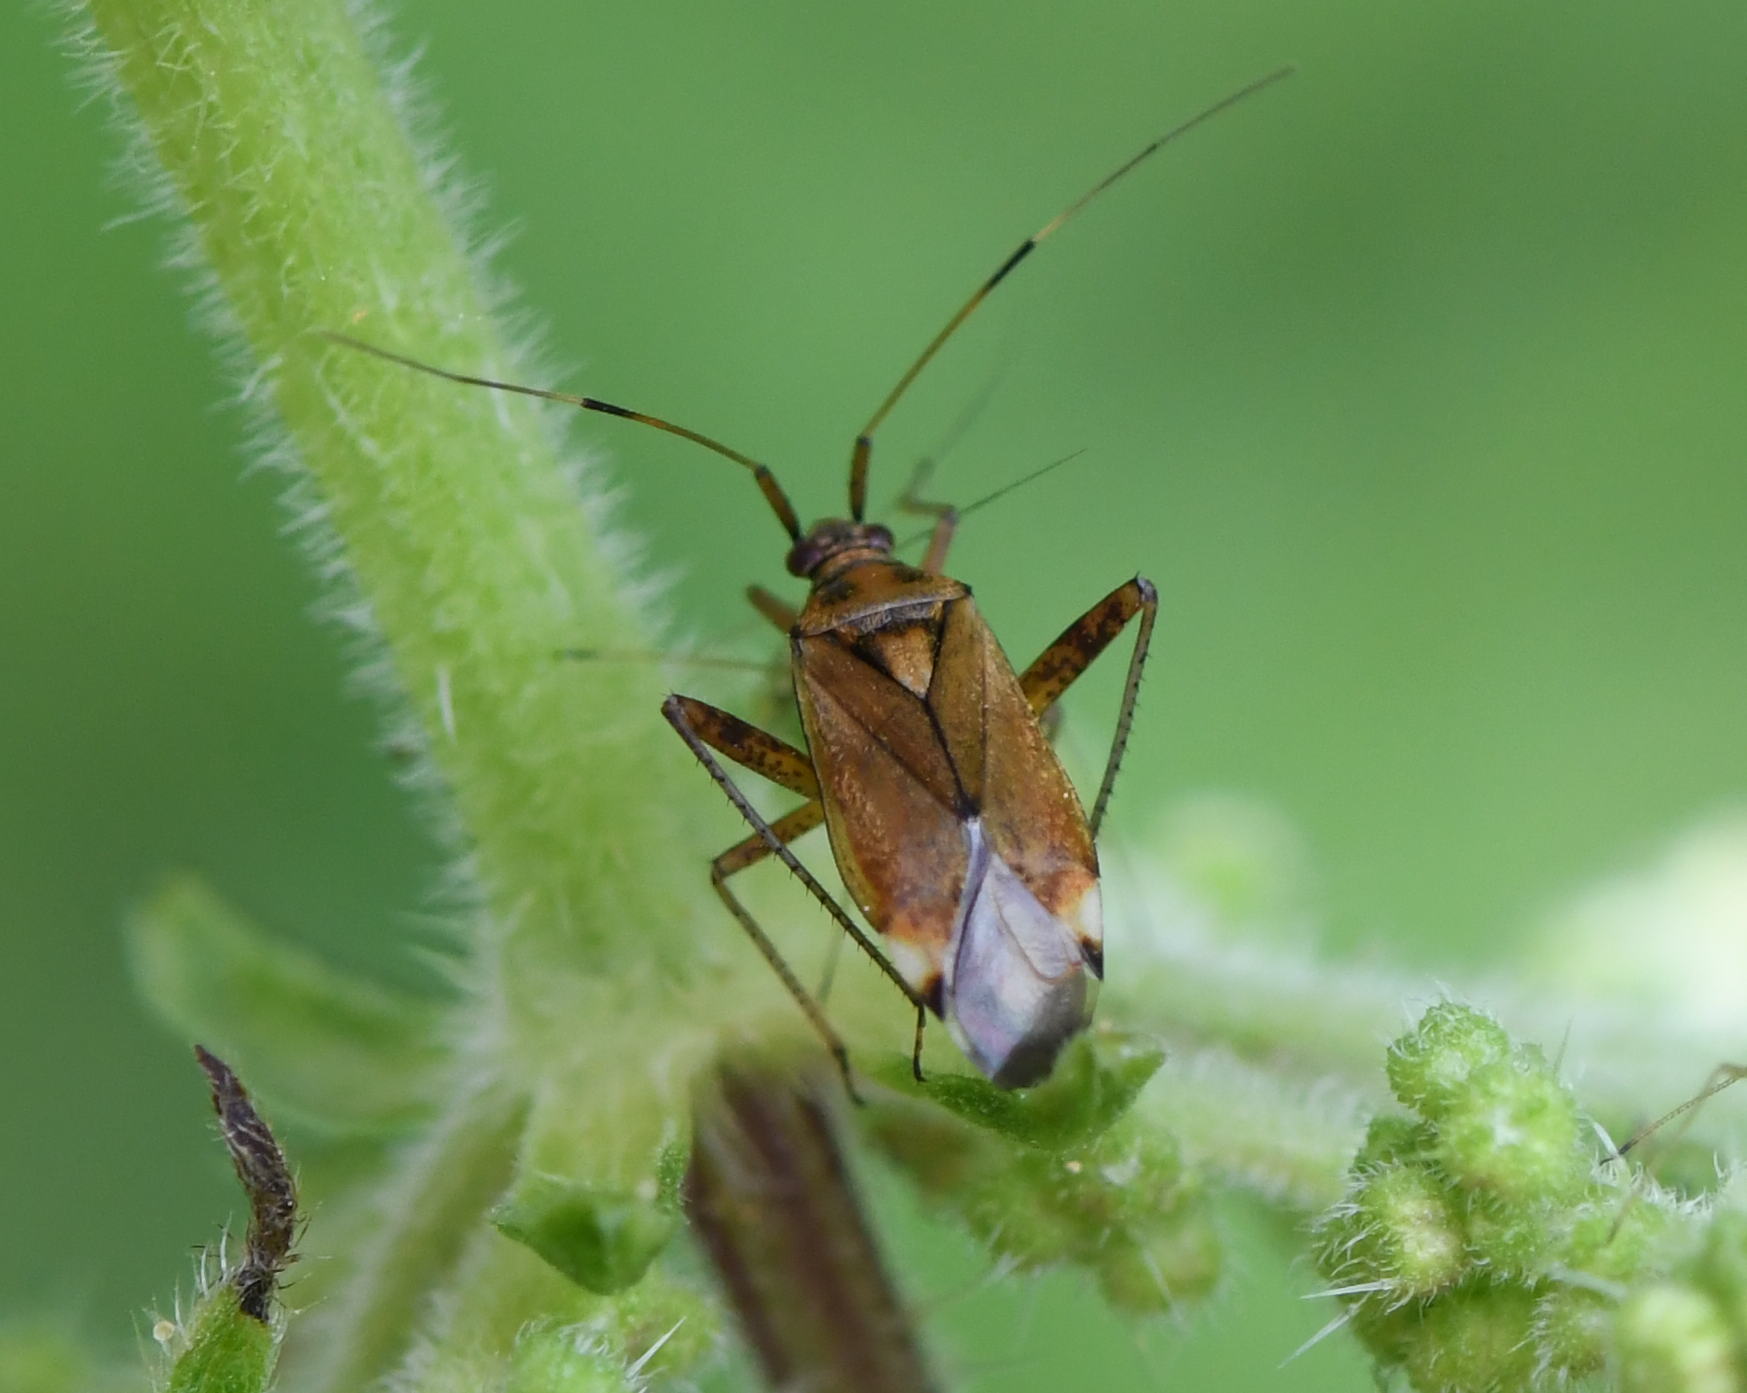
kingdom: Animalia
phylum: Arthropoda
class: Insecta
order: Hemiptera
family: Miridae
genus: Closterotomus
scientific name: Closterotomus fulvomaculatus
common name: Spotted plant bug
